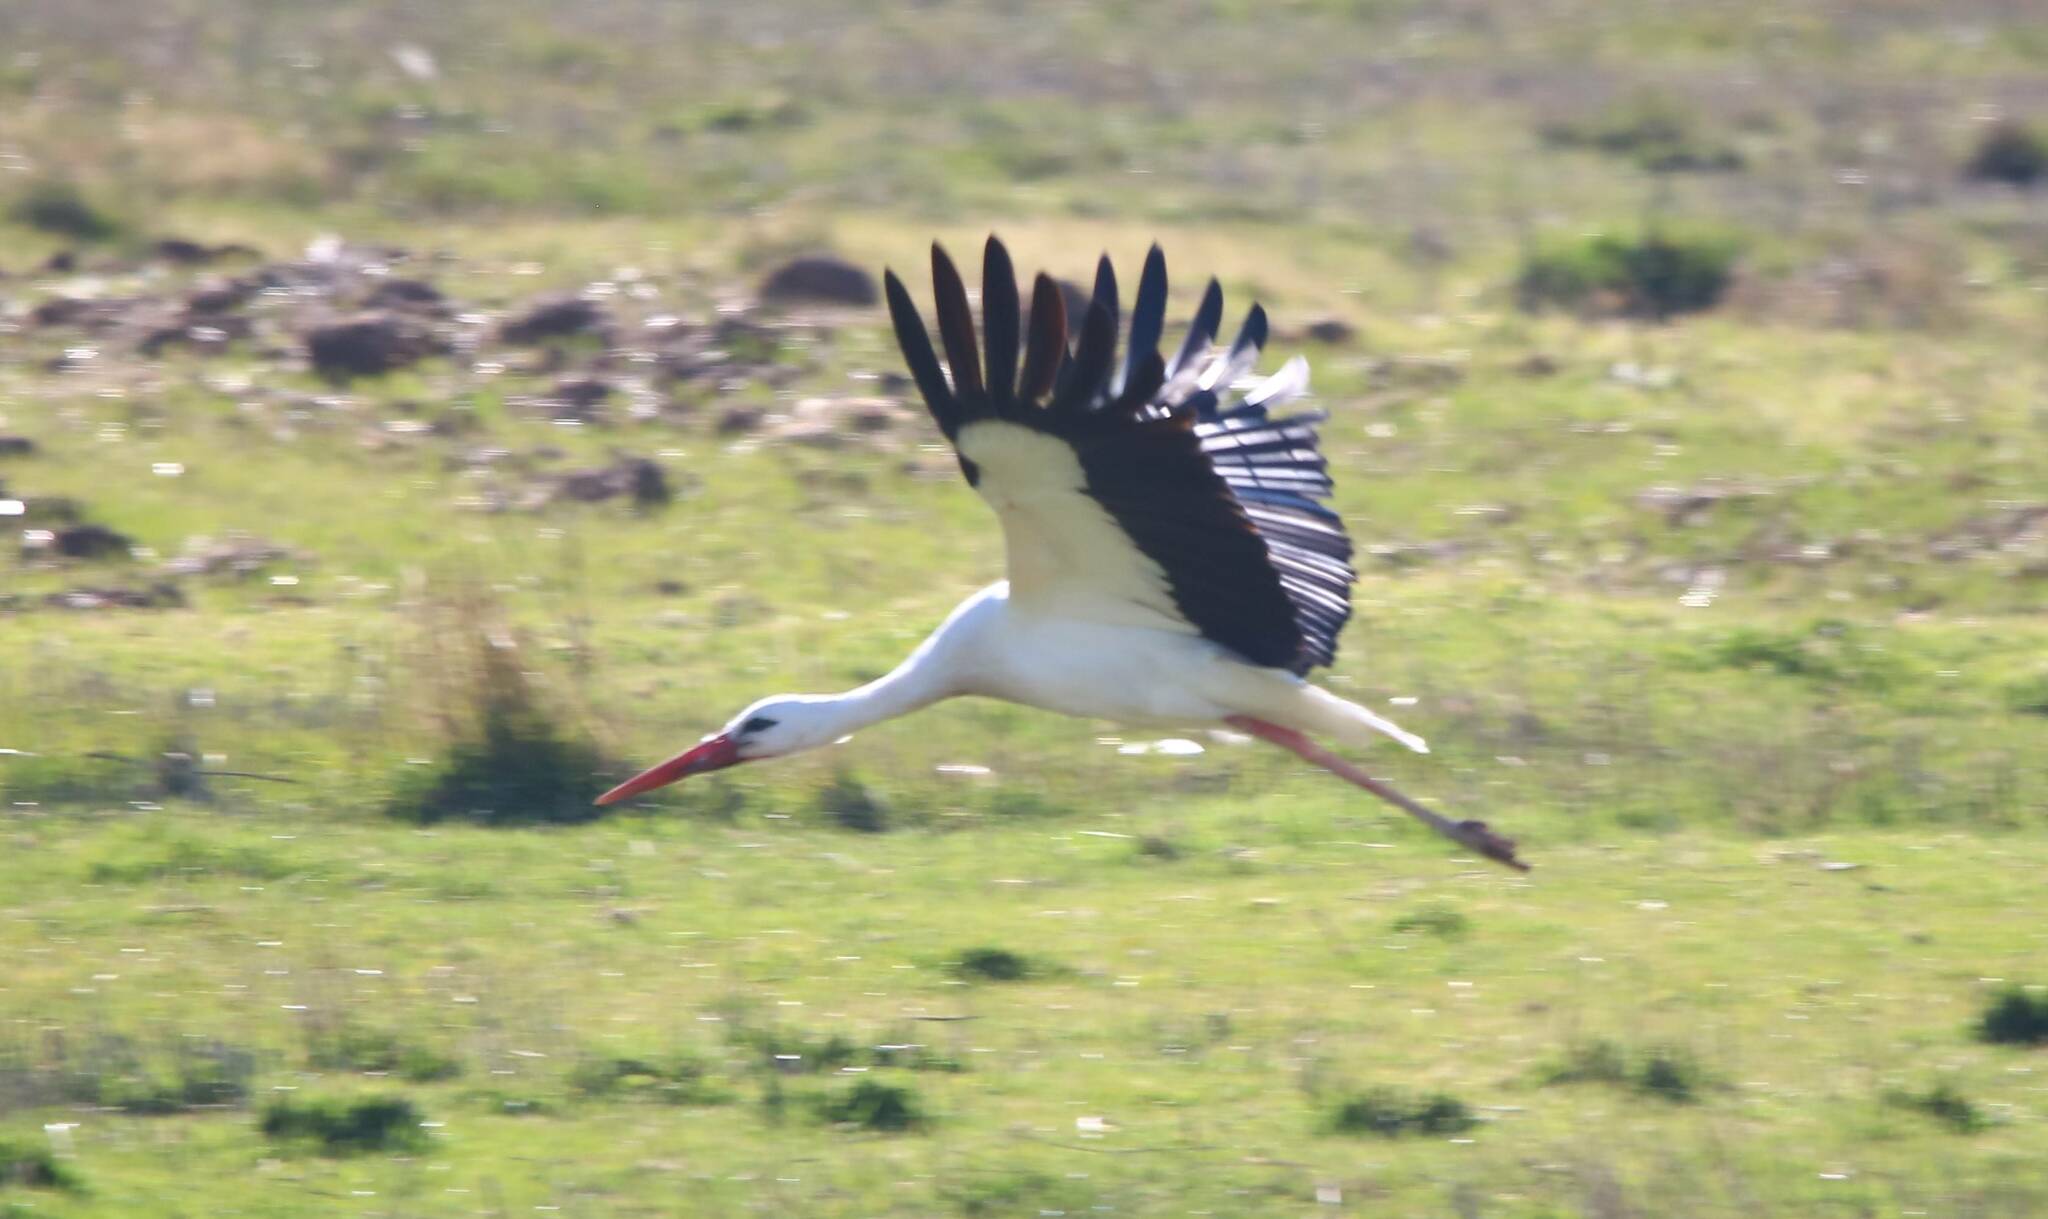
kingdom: Animalia
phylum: Chordata
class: Aves
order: Ciconiiformes
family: Ciconiidae
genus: Ciconia
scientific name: Ciconia ciconia
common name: White stork
